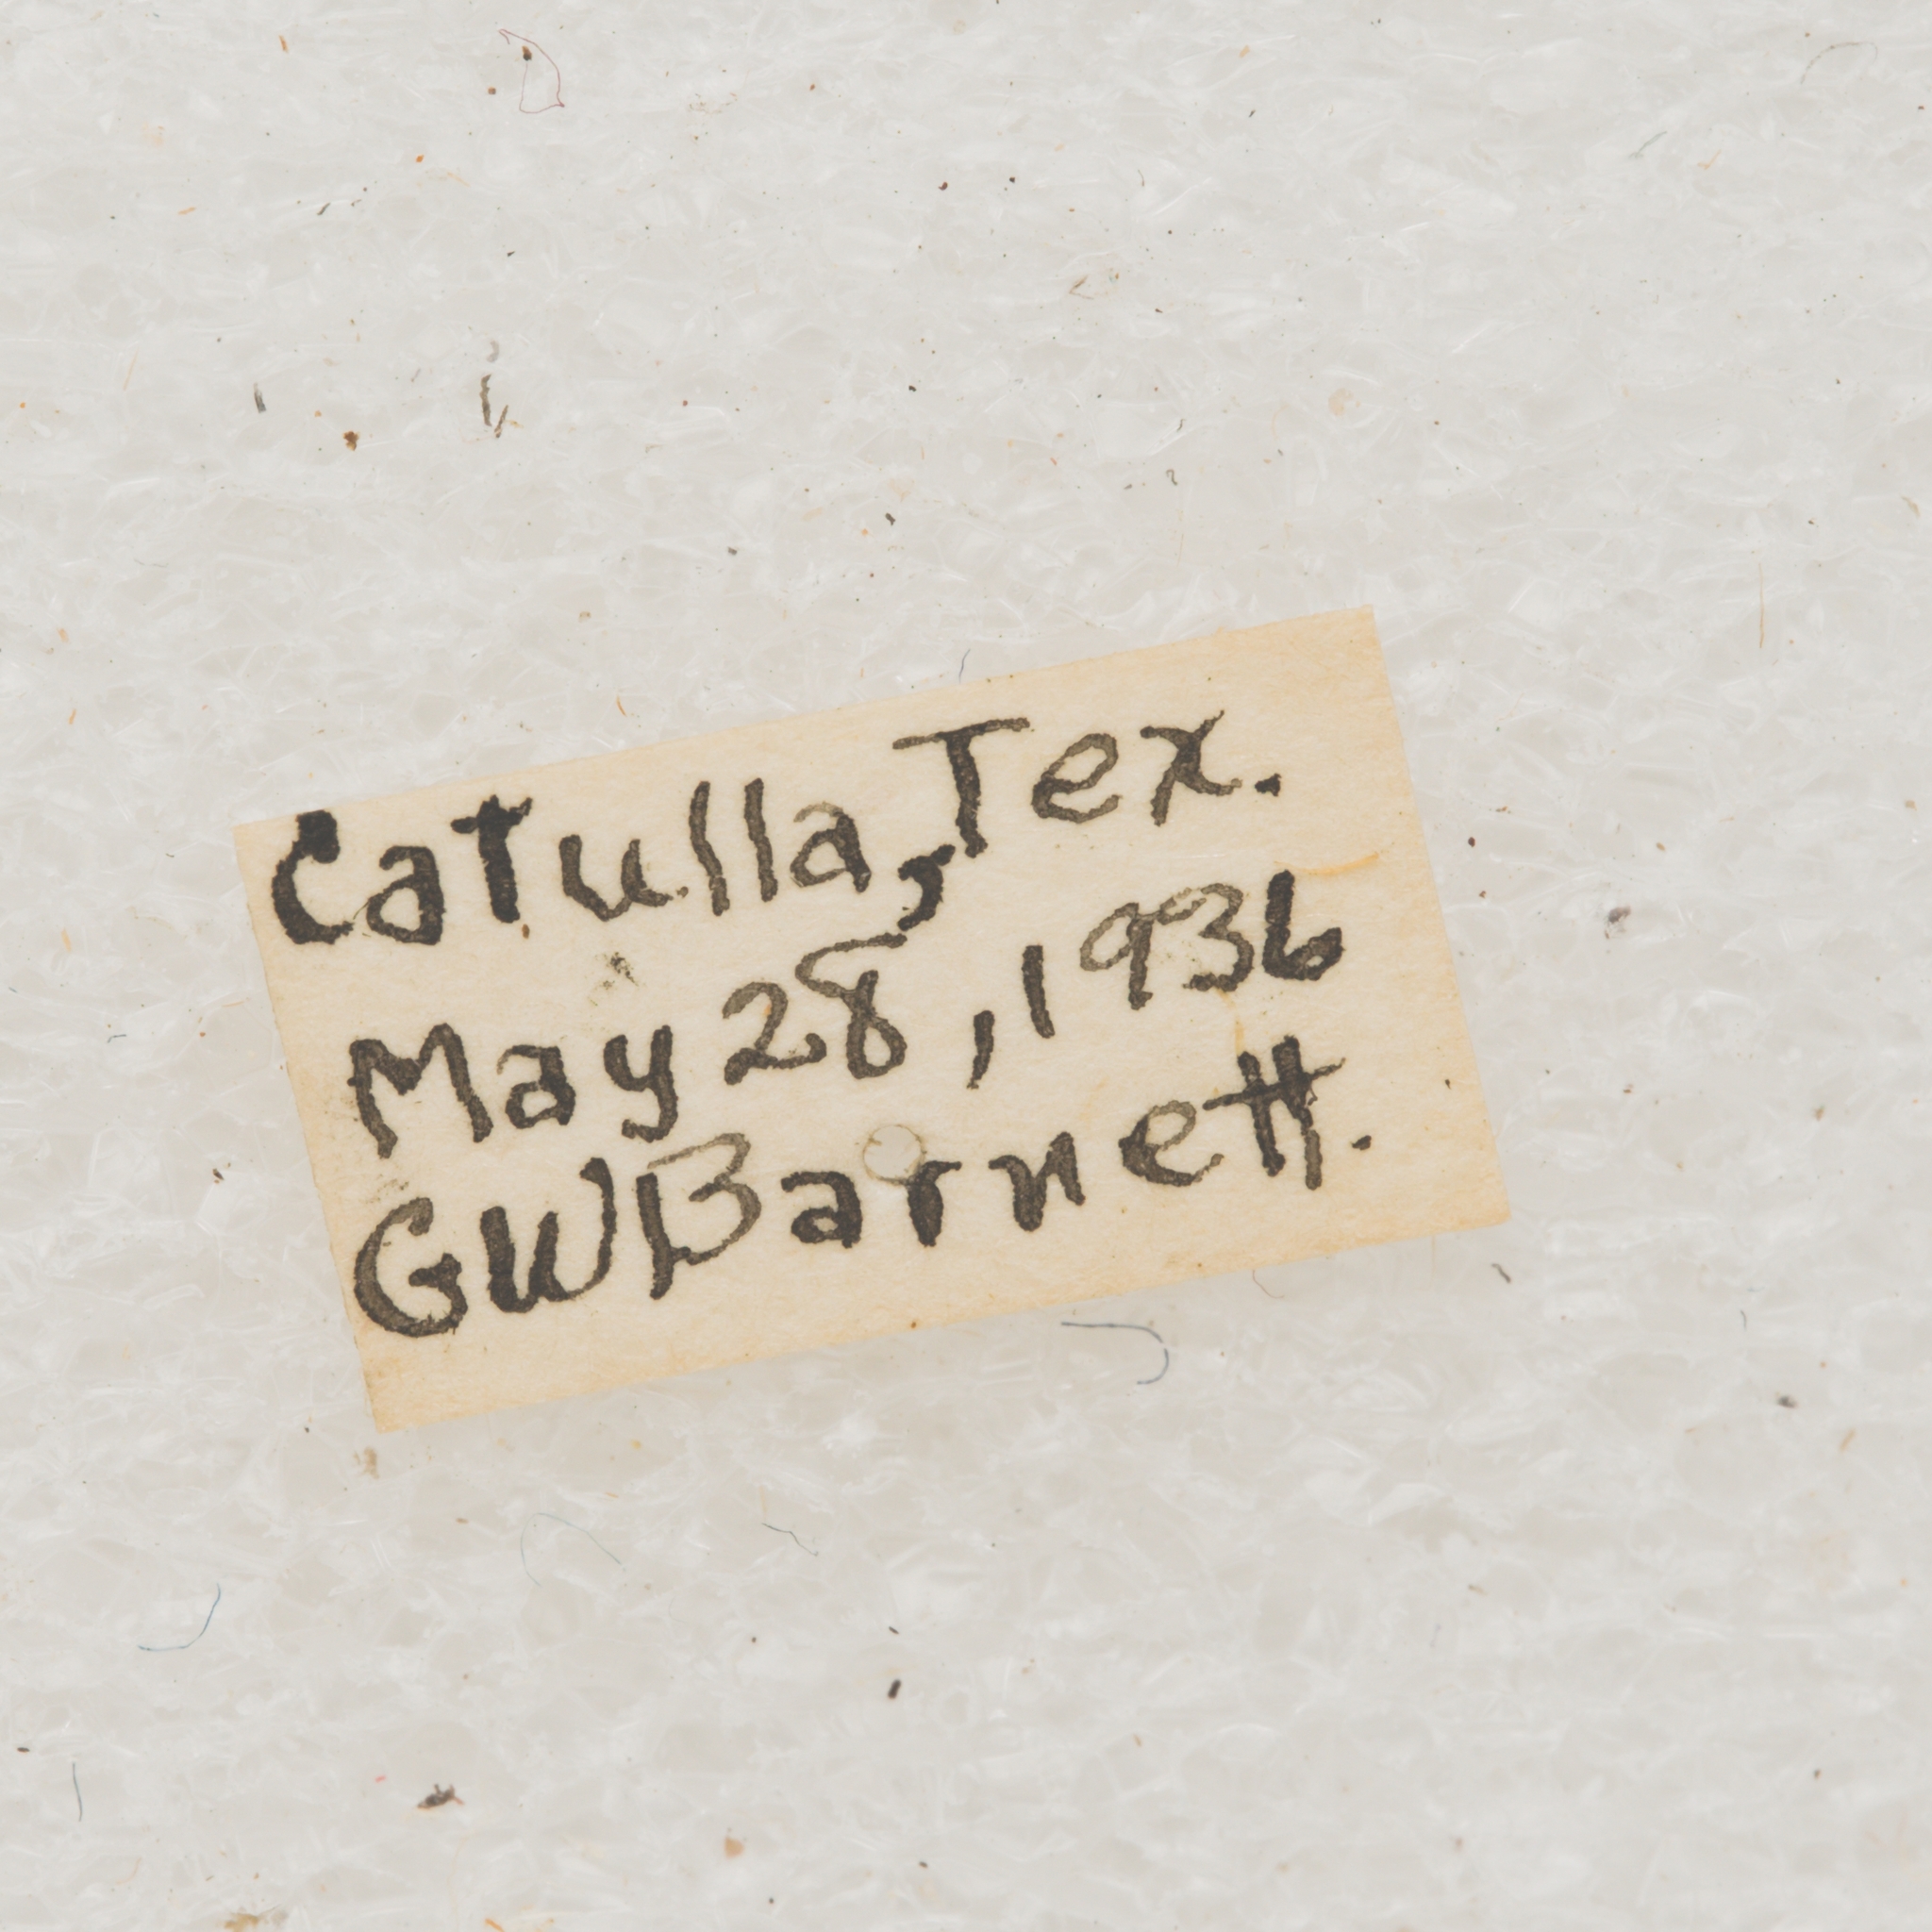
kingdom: Animalia
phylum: Arthropoda
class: Insecta
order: Coleoptera
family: Cerambycidae
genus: Parmenosoma
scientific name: Parmenosoma griseum
